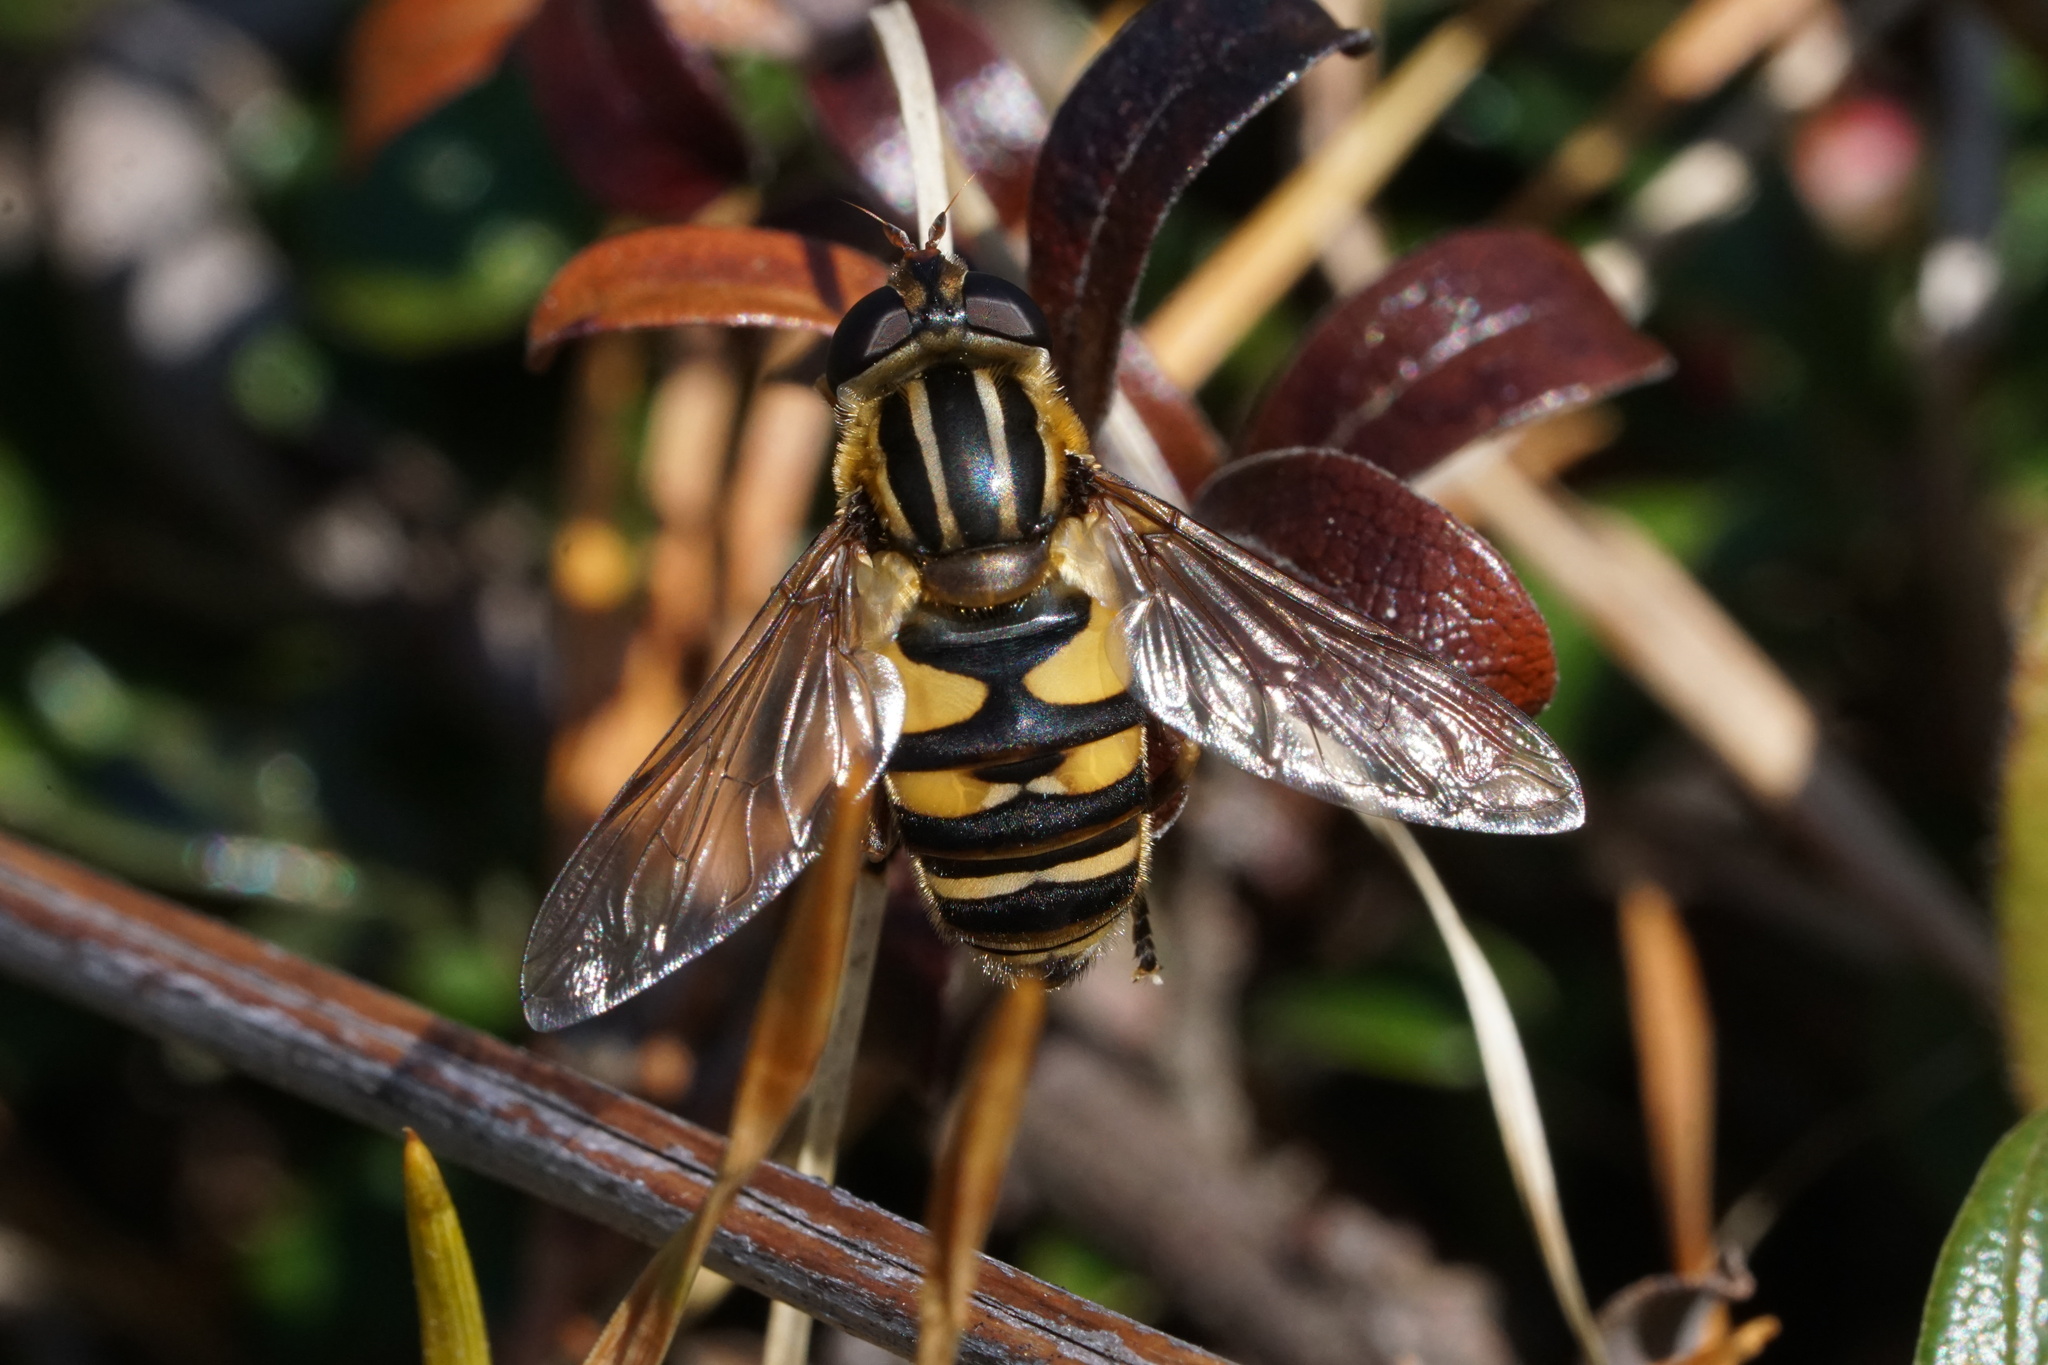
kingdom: Animalia
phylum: Arthropoda
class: Insecta
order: Diptera
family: Syrphidae
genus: Helophilus
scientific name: Helophilus fasciatus
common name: Narrow-headed marsh fly
